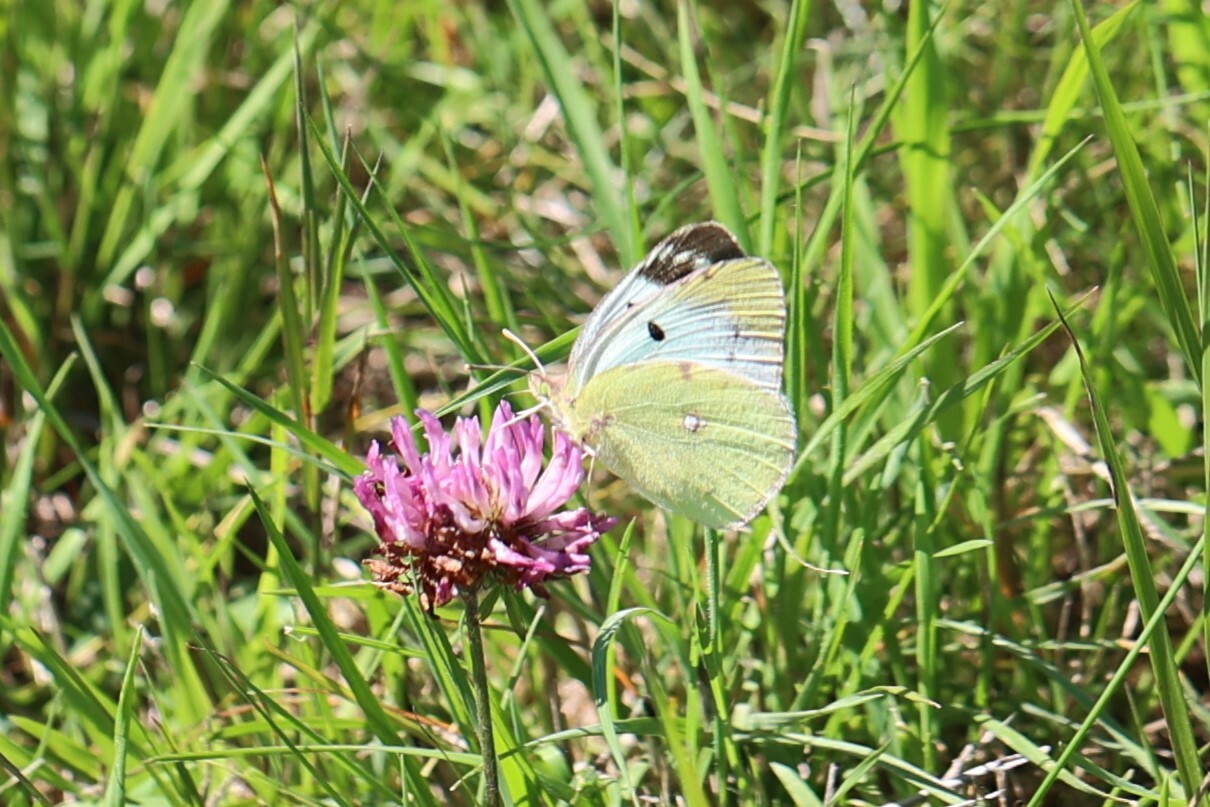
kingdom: Animalia
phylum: Arthropoda
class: Insecta
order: Lepidoptera
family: Pieridae
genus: Colias
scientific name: Colias hyale
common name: Pale clouded yellow
